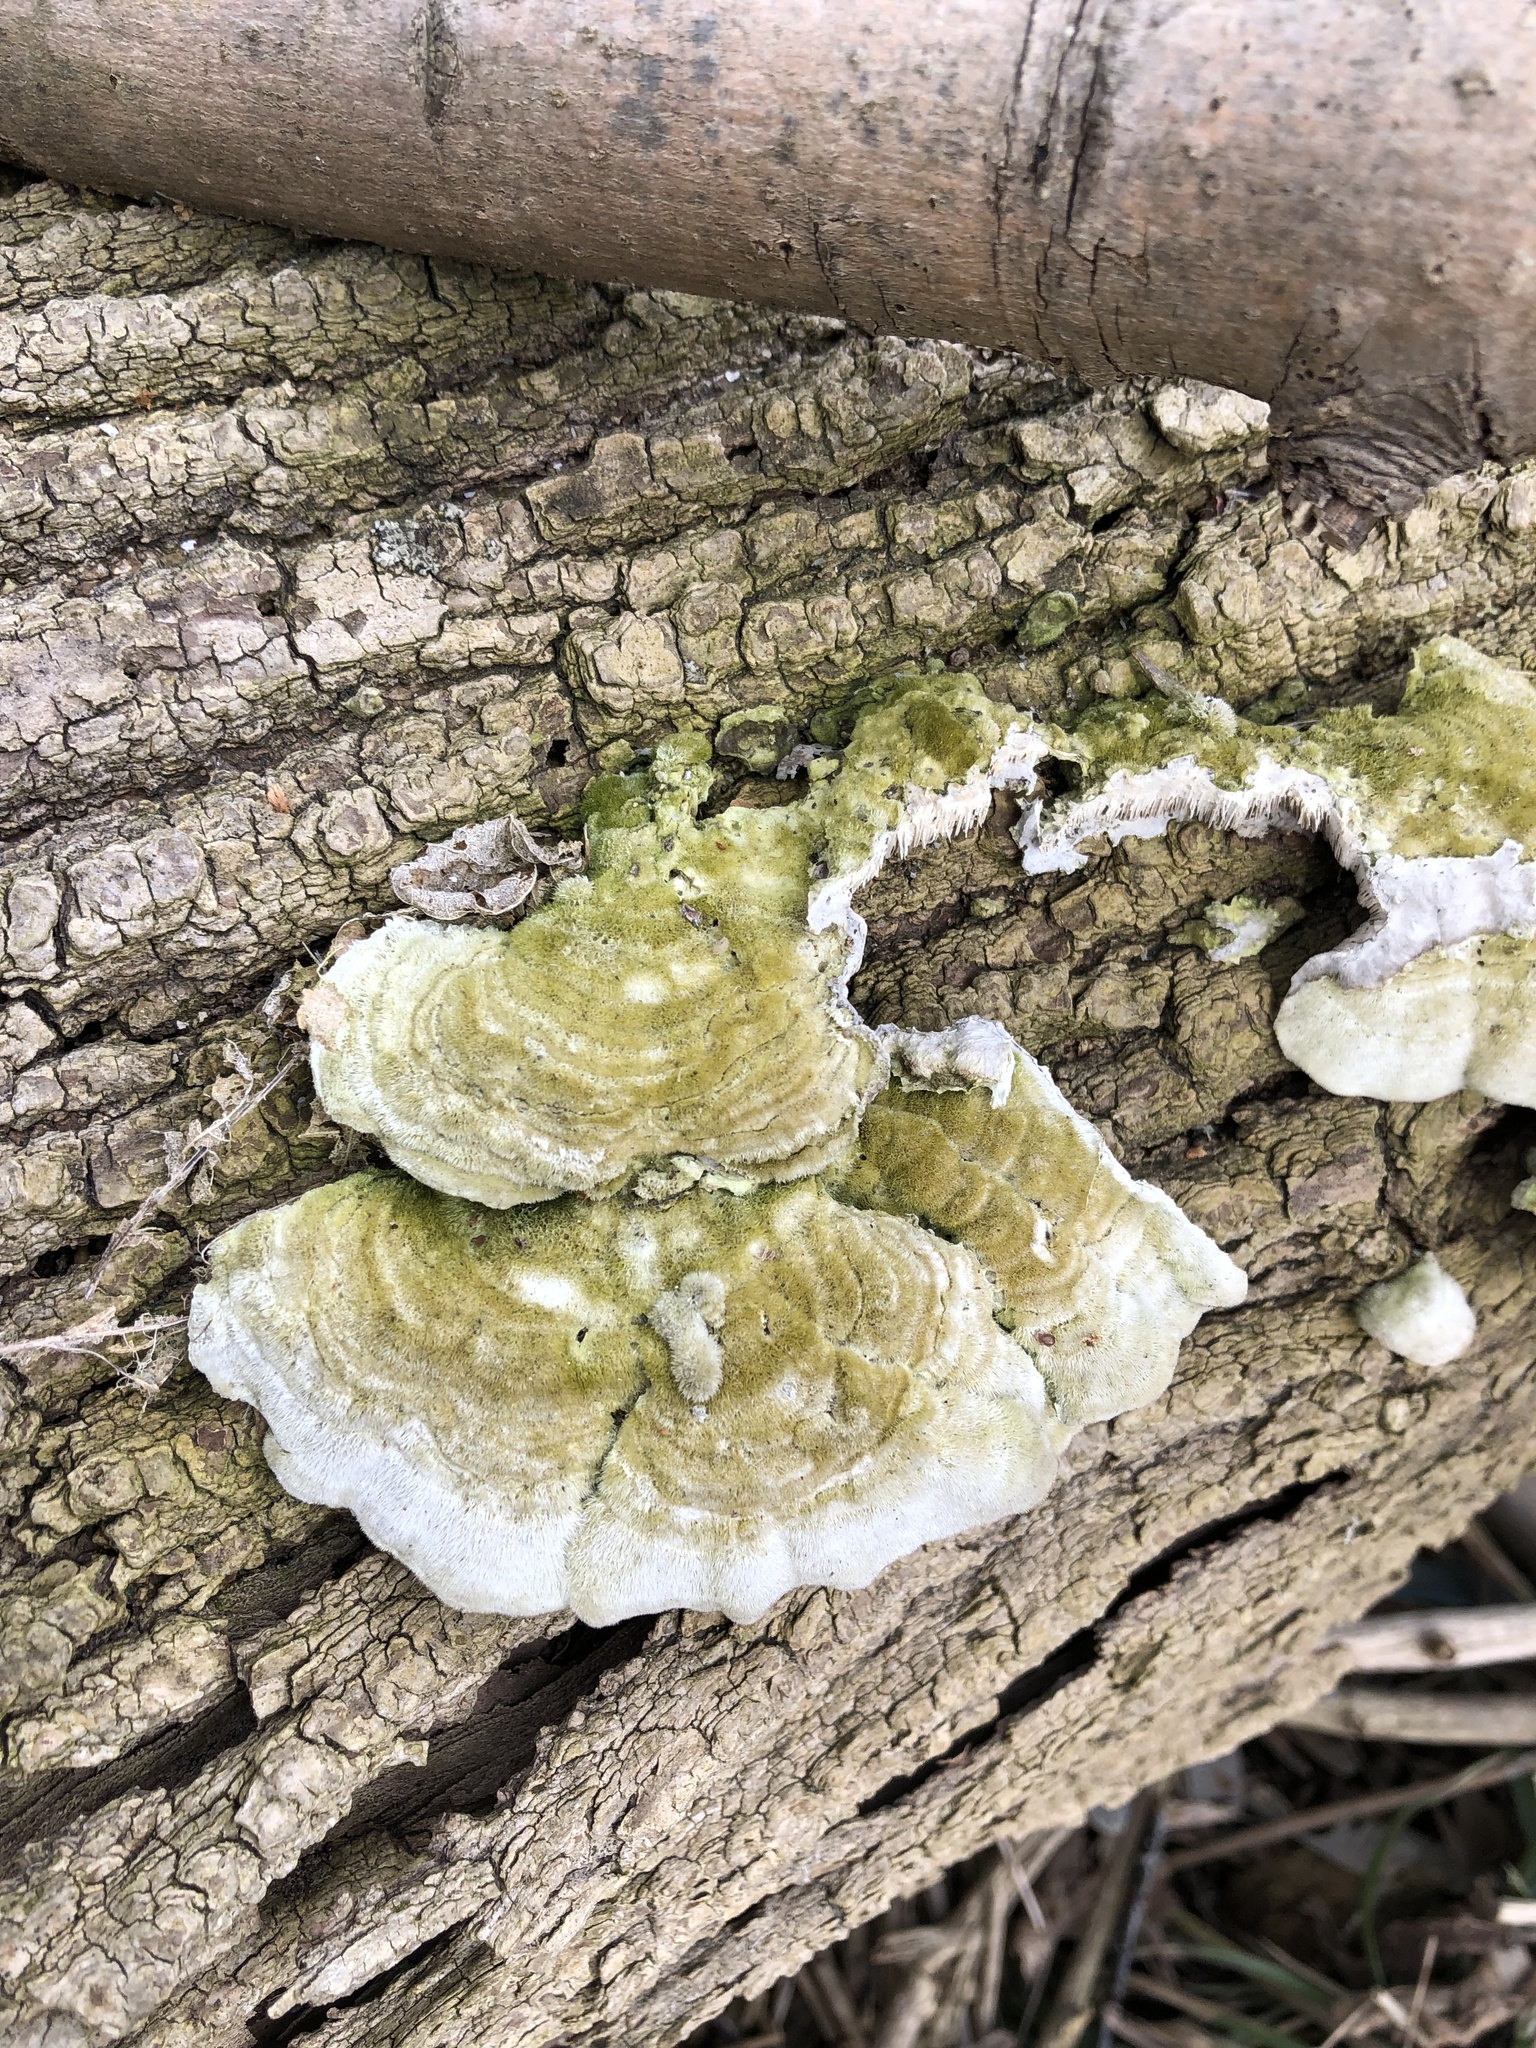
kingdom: Fungi
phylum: Basidiomycota
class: Agaricomycetes
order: Polyporales
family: Cerrenaceae
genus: Cerrena
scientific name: Cerrena unicolor
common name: Mossy maze polypore
